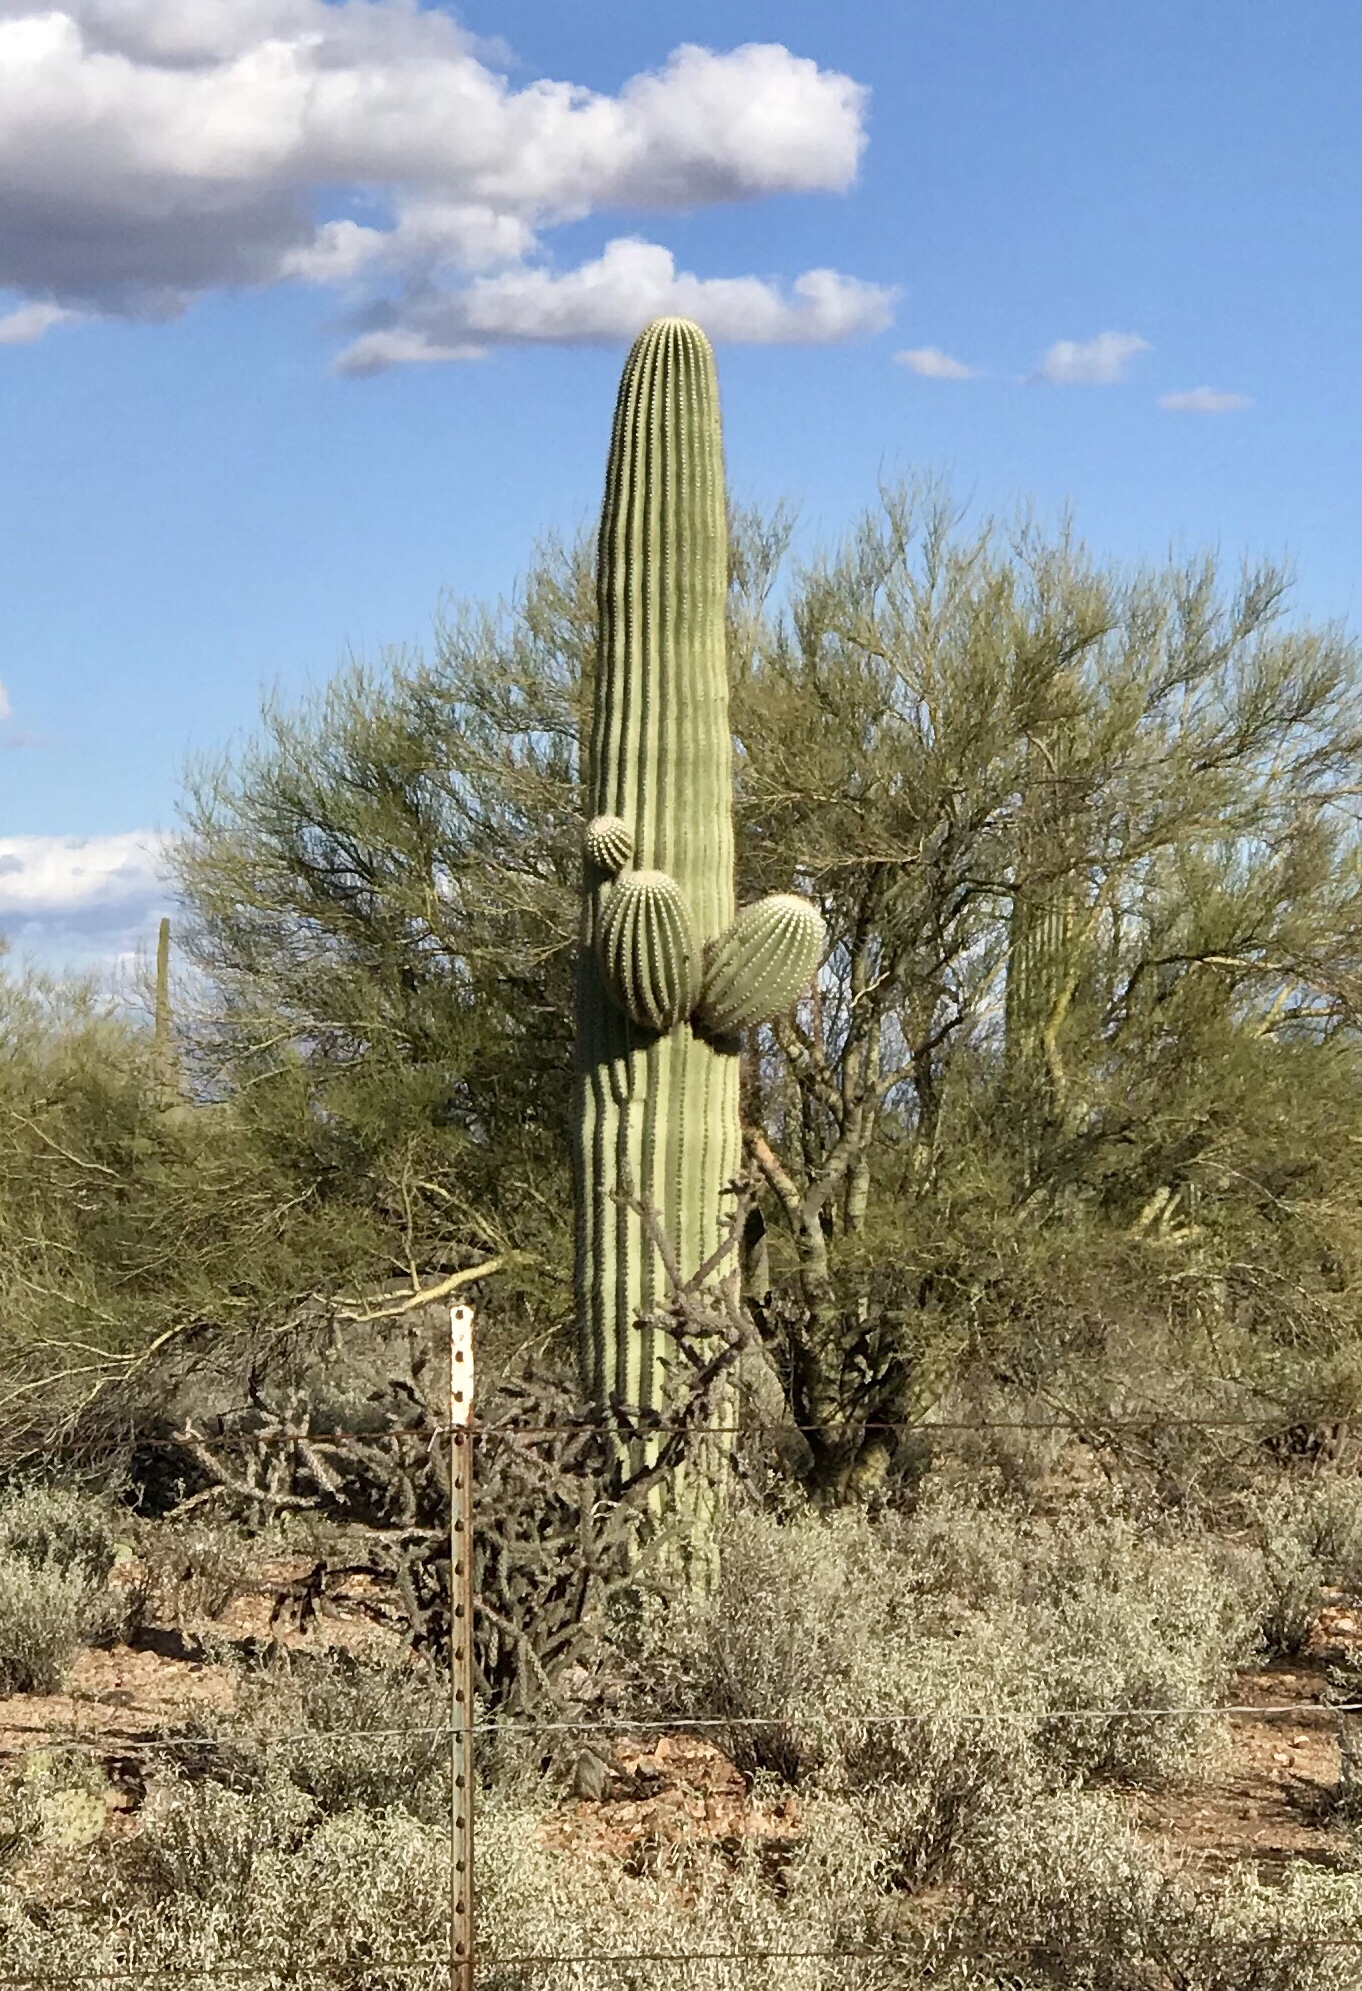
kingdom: Plantae
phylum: Tracheophyta
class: Magnoliopsida
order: Caryophyllales
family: Cactaceae
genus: Carnegiea
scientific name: Carnegiea gigantea
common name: Saguaro
